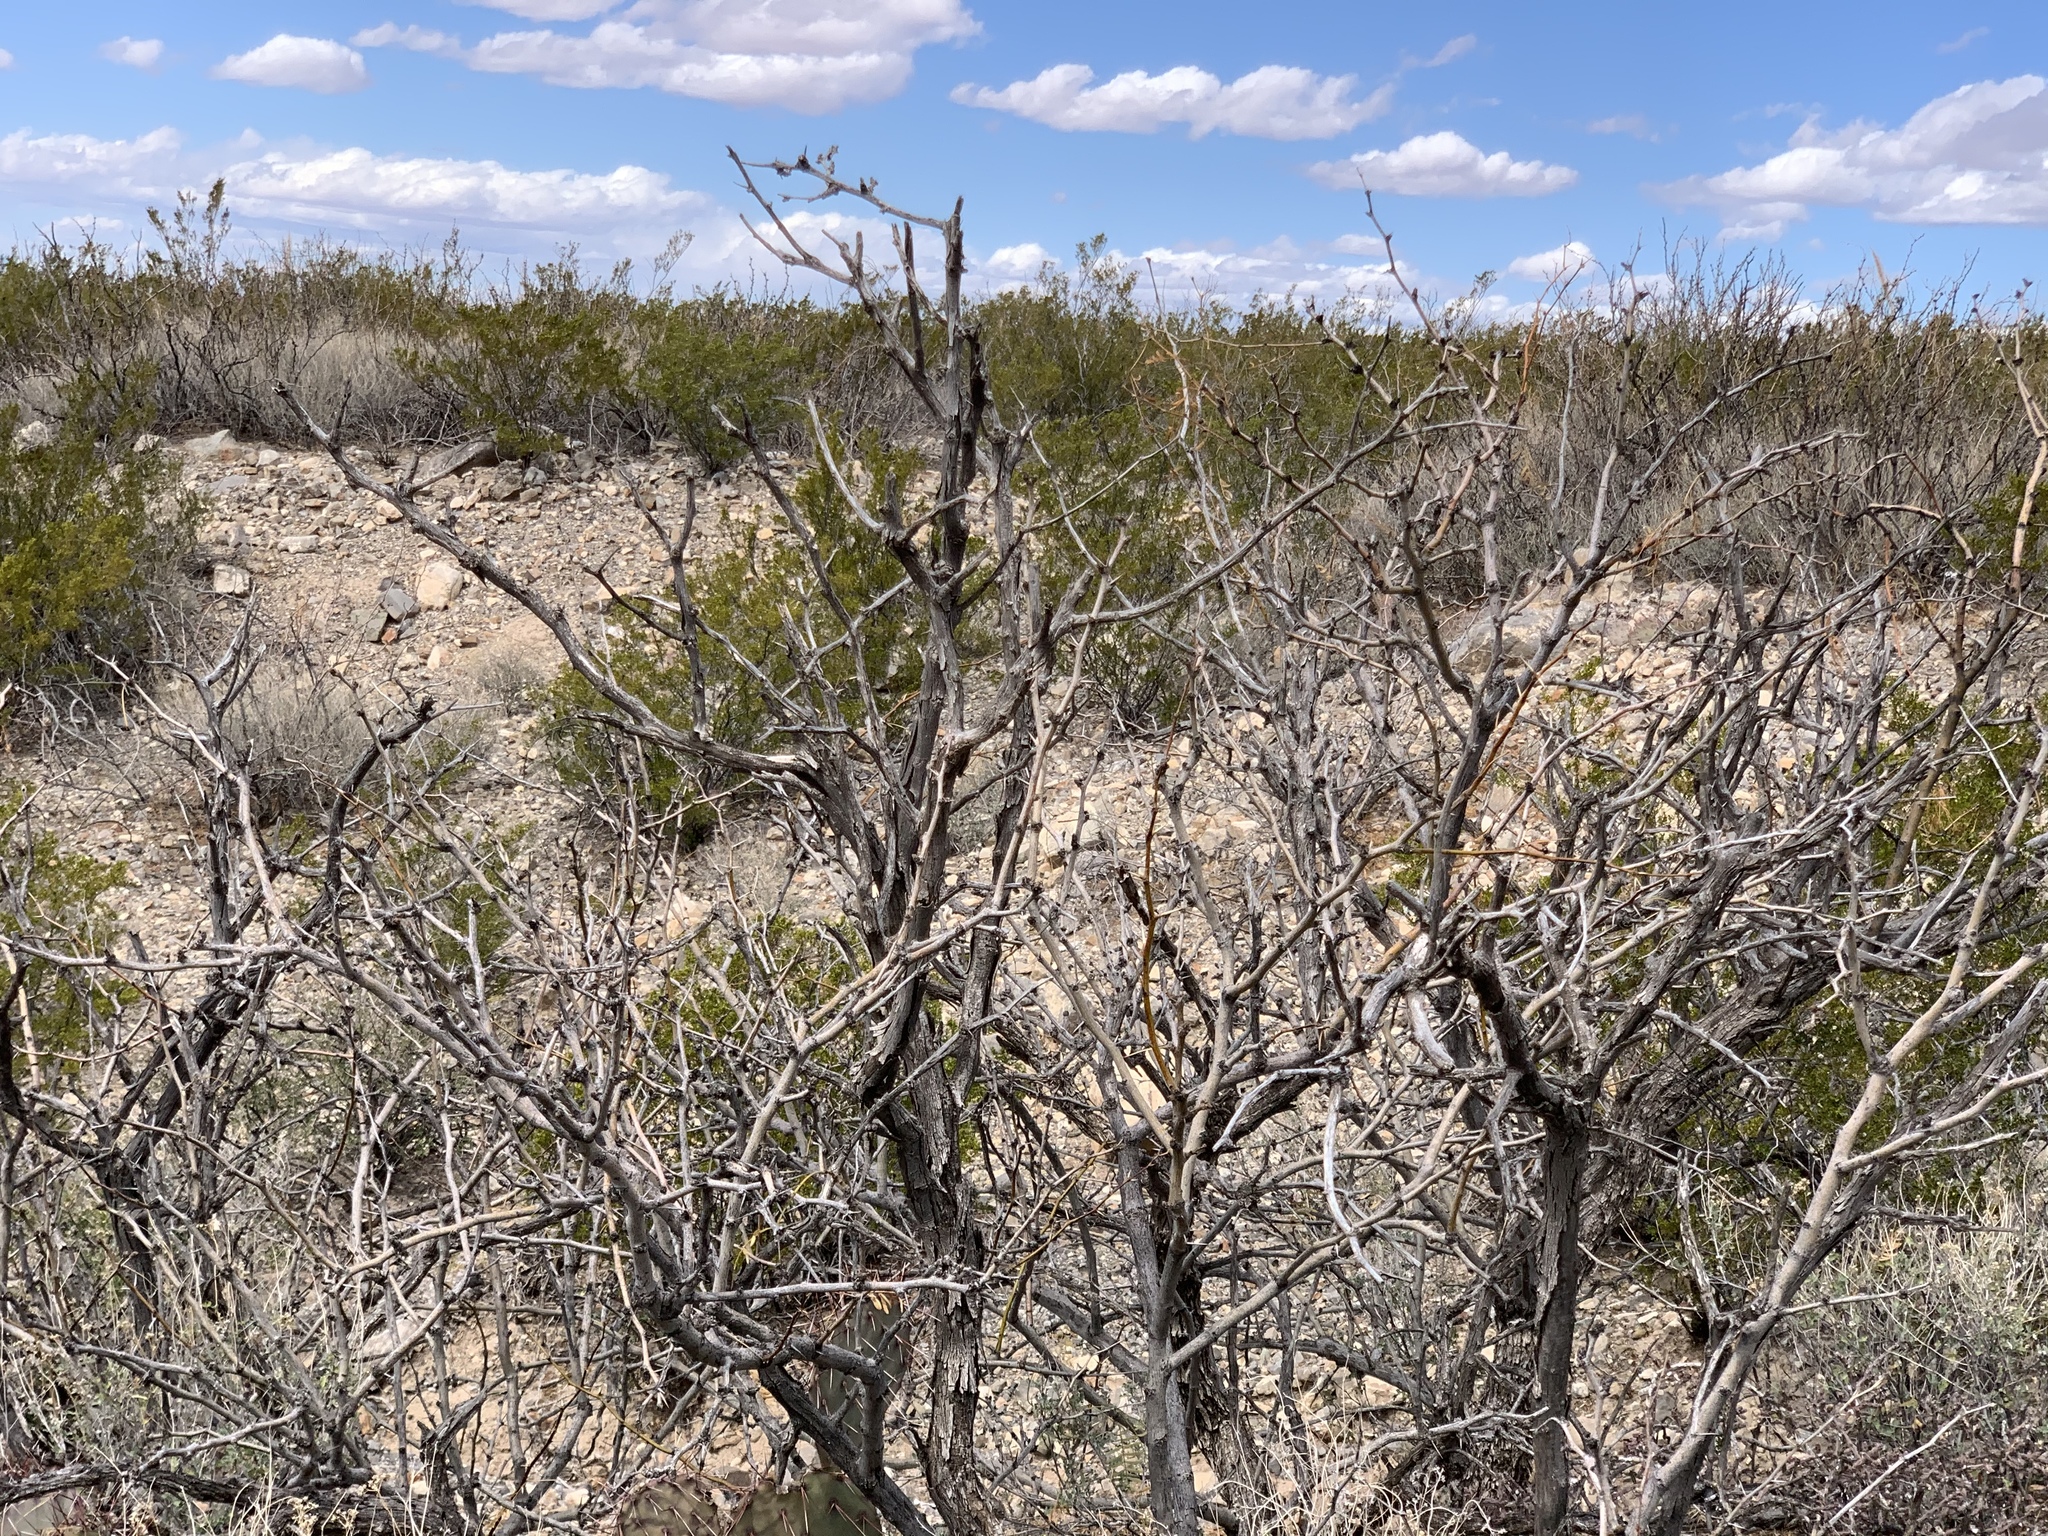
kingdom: Plantae
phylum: Tracheophyta
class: Magnoliopsida
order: Fabales
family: Fabaceae
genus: Prosopis
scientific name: Prosopis glandulosa
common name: Honey mesquite
